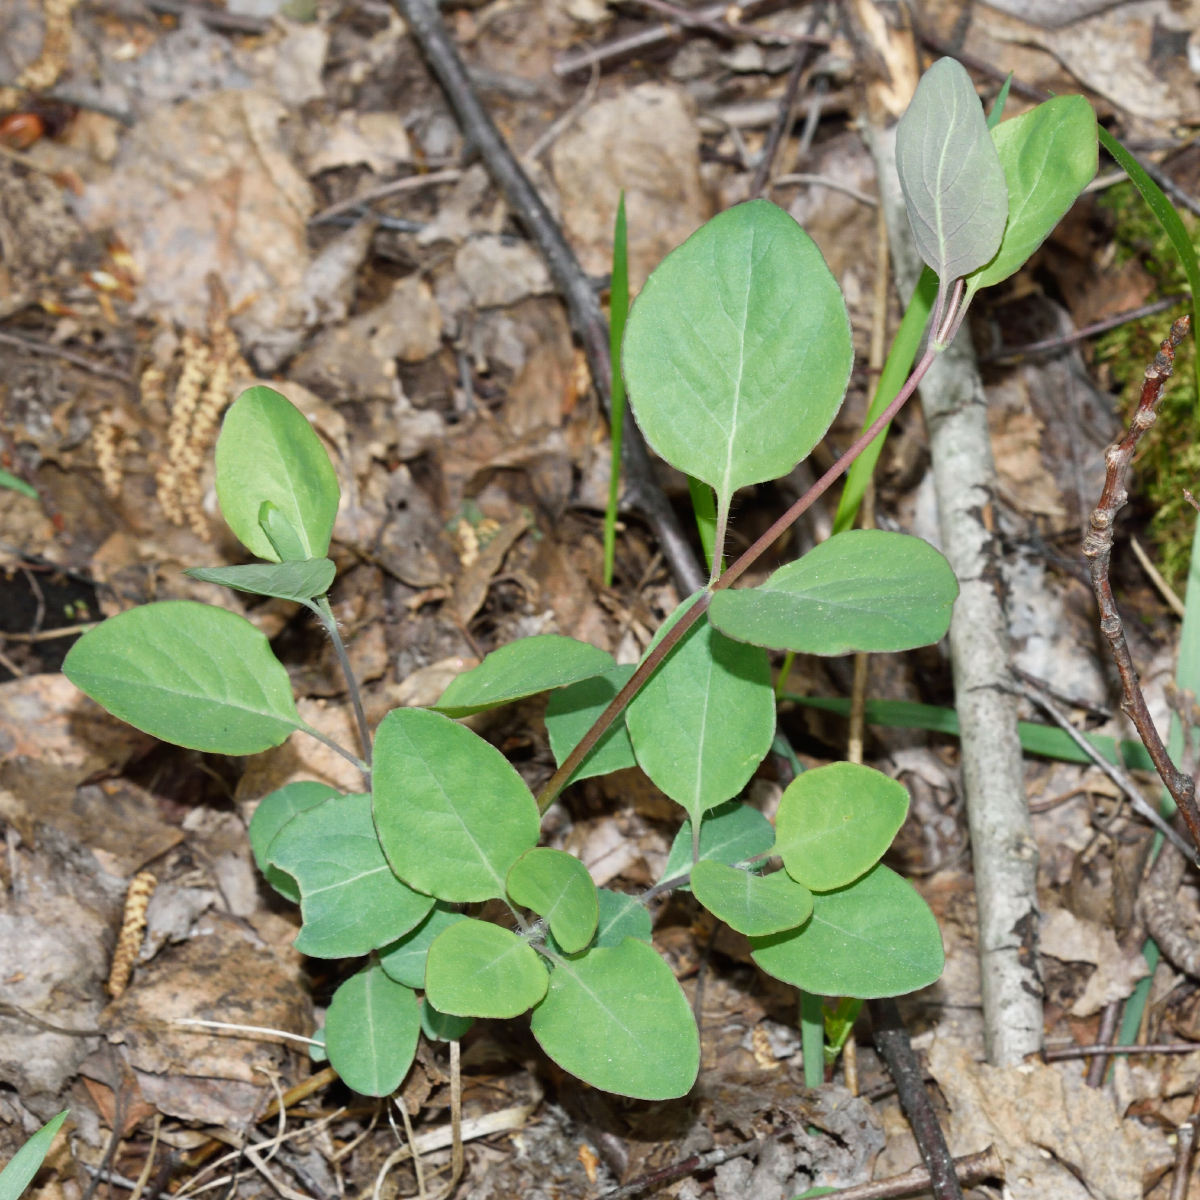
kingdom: Plantae
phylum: Tracheophyta
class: Magnoliopsida
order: Dipsacales
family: Caprifoliaceae
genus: Lonicera
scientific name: Lonicera caprifolium
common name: Perfoliate honeysuckle
